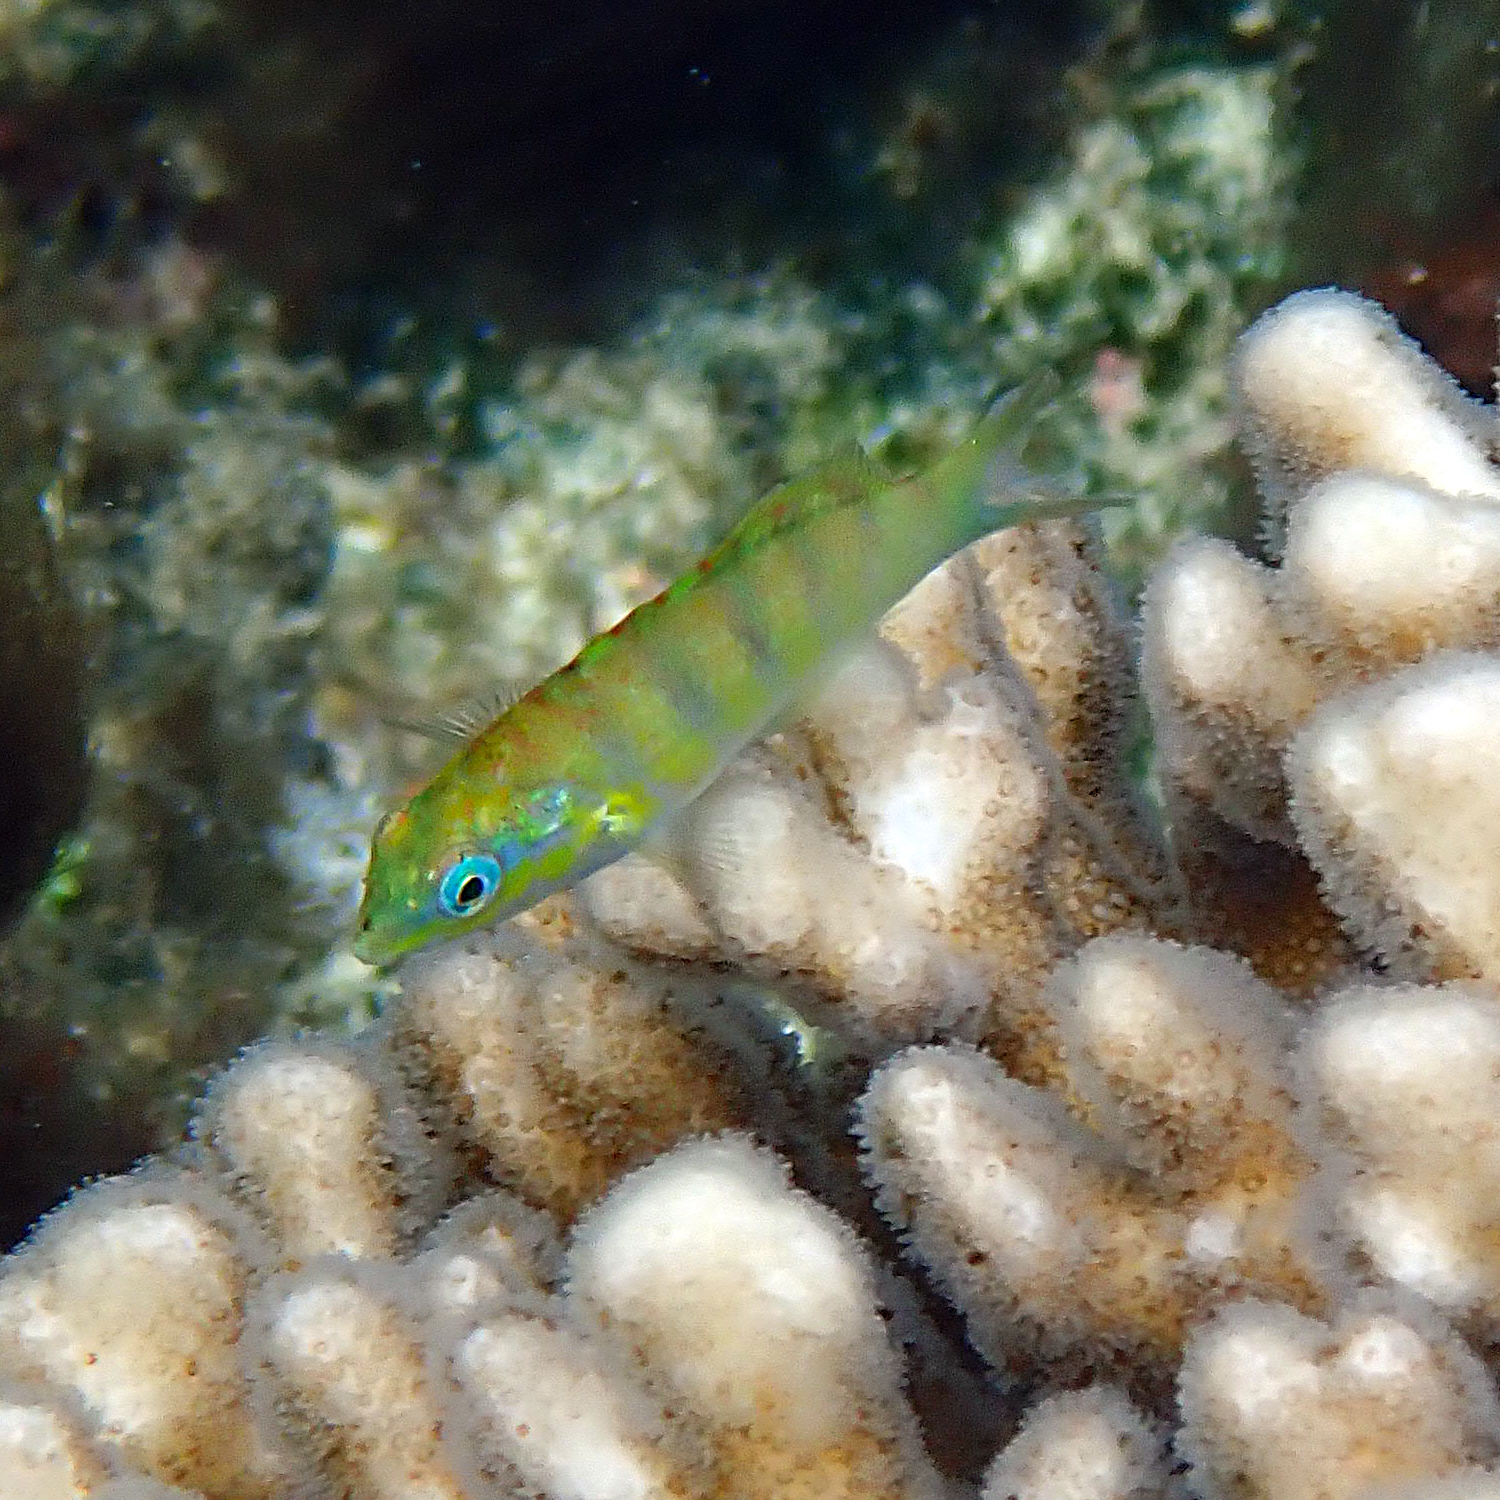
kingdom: Animalia
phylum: Chordata
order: Perciformes
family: Labridae
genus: Thalassoma
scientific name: Thalassoma hardwicke
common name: Sixbar wrasse
